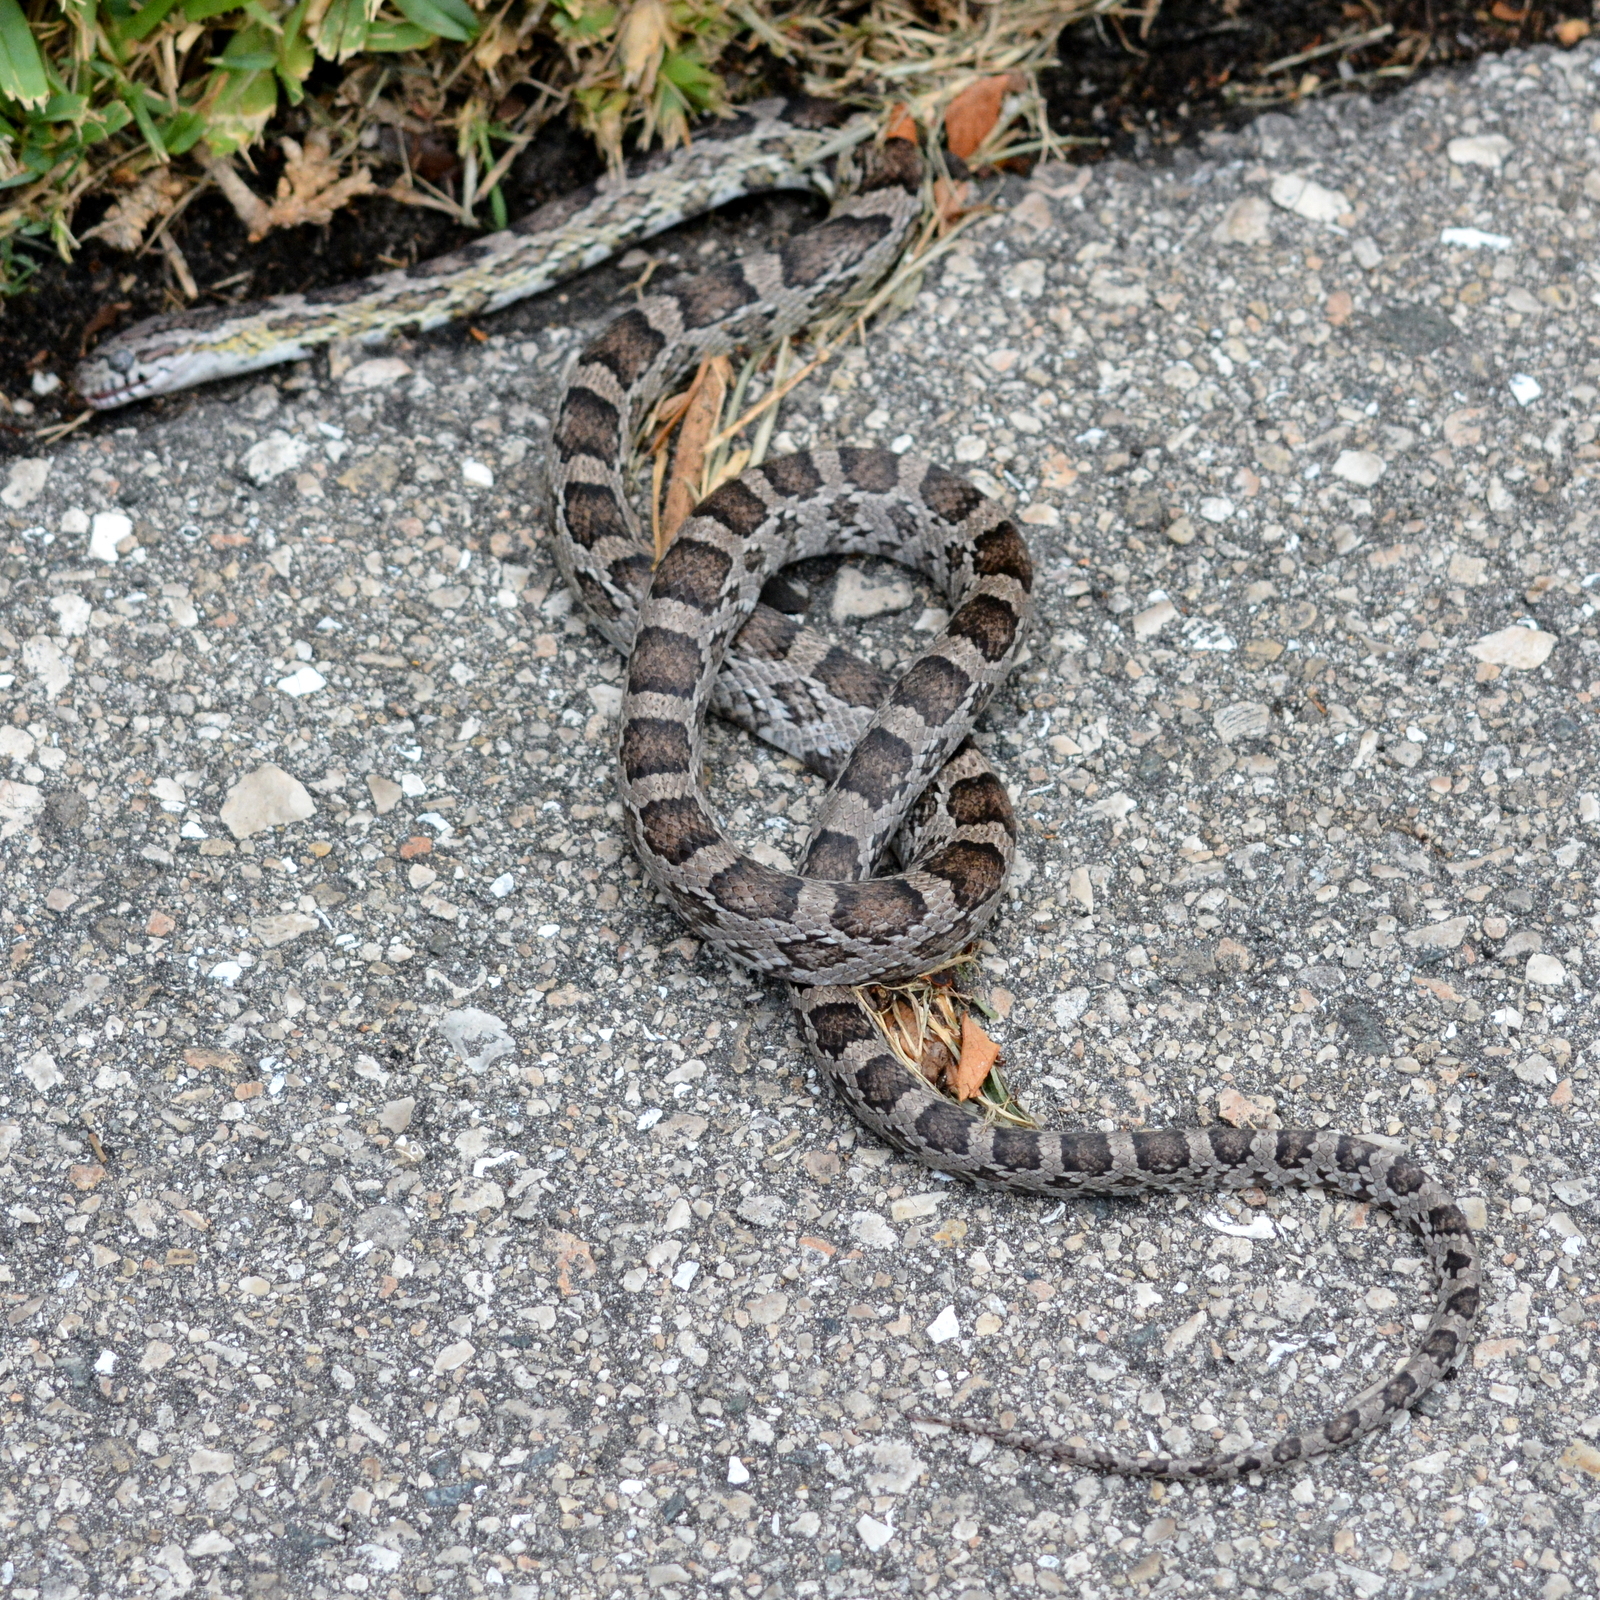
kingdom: Animalia
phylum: Chordata
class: Squamata
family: Colubridae
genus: Pantherophis
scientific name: Pantherophis guttatus
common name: Red cornsnake
